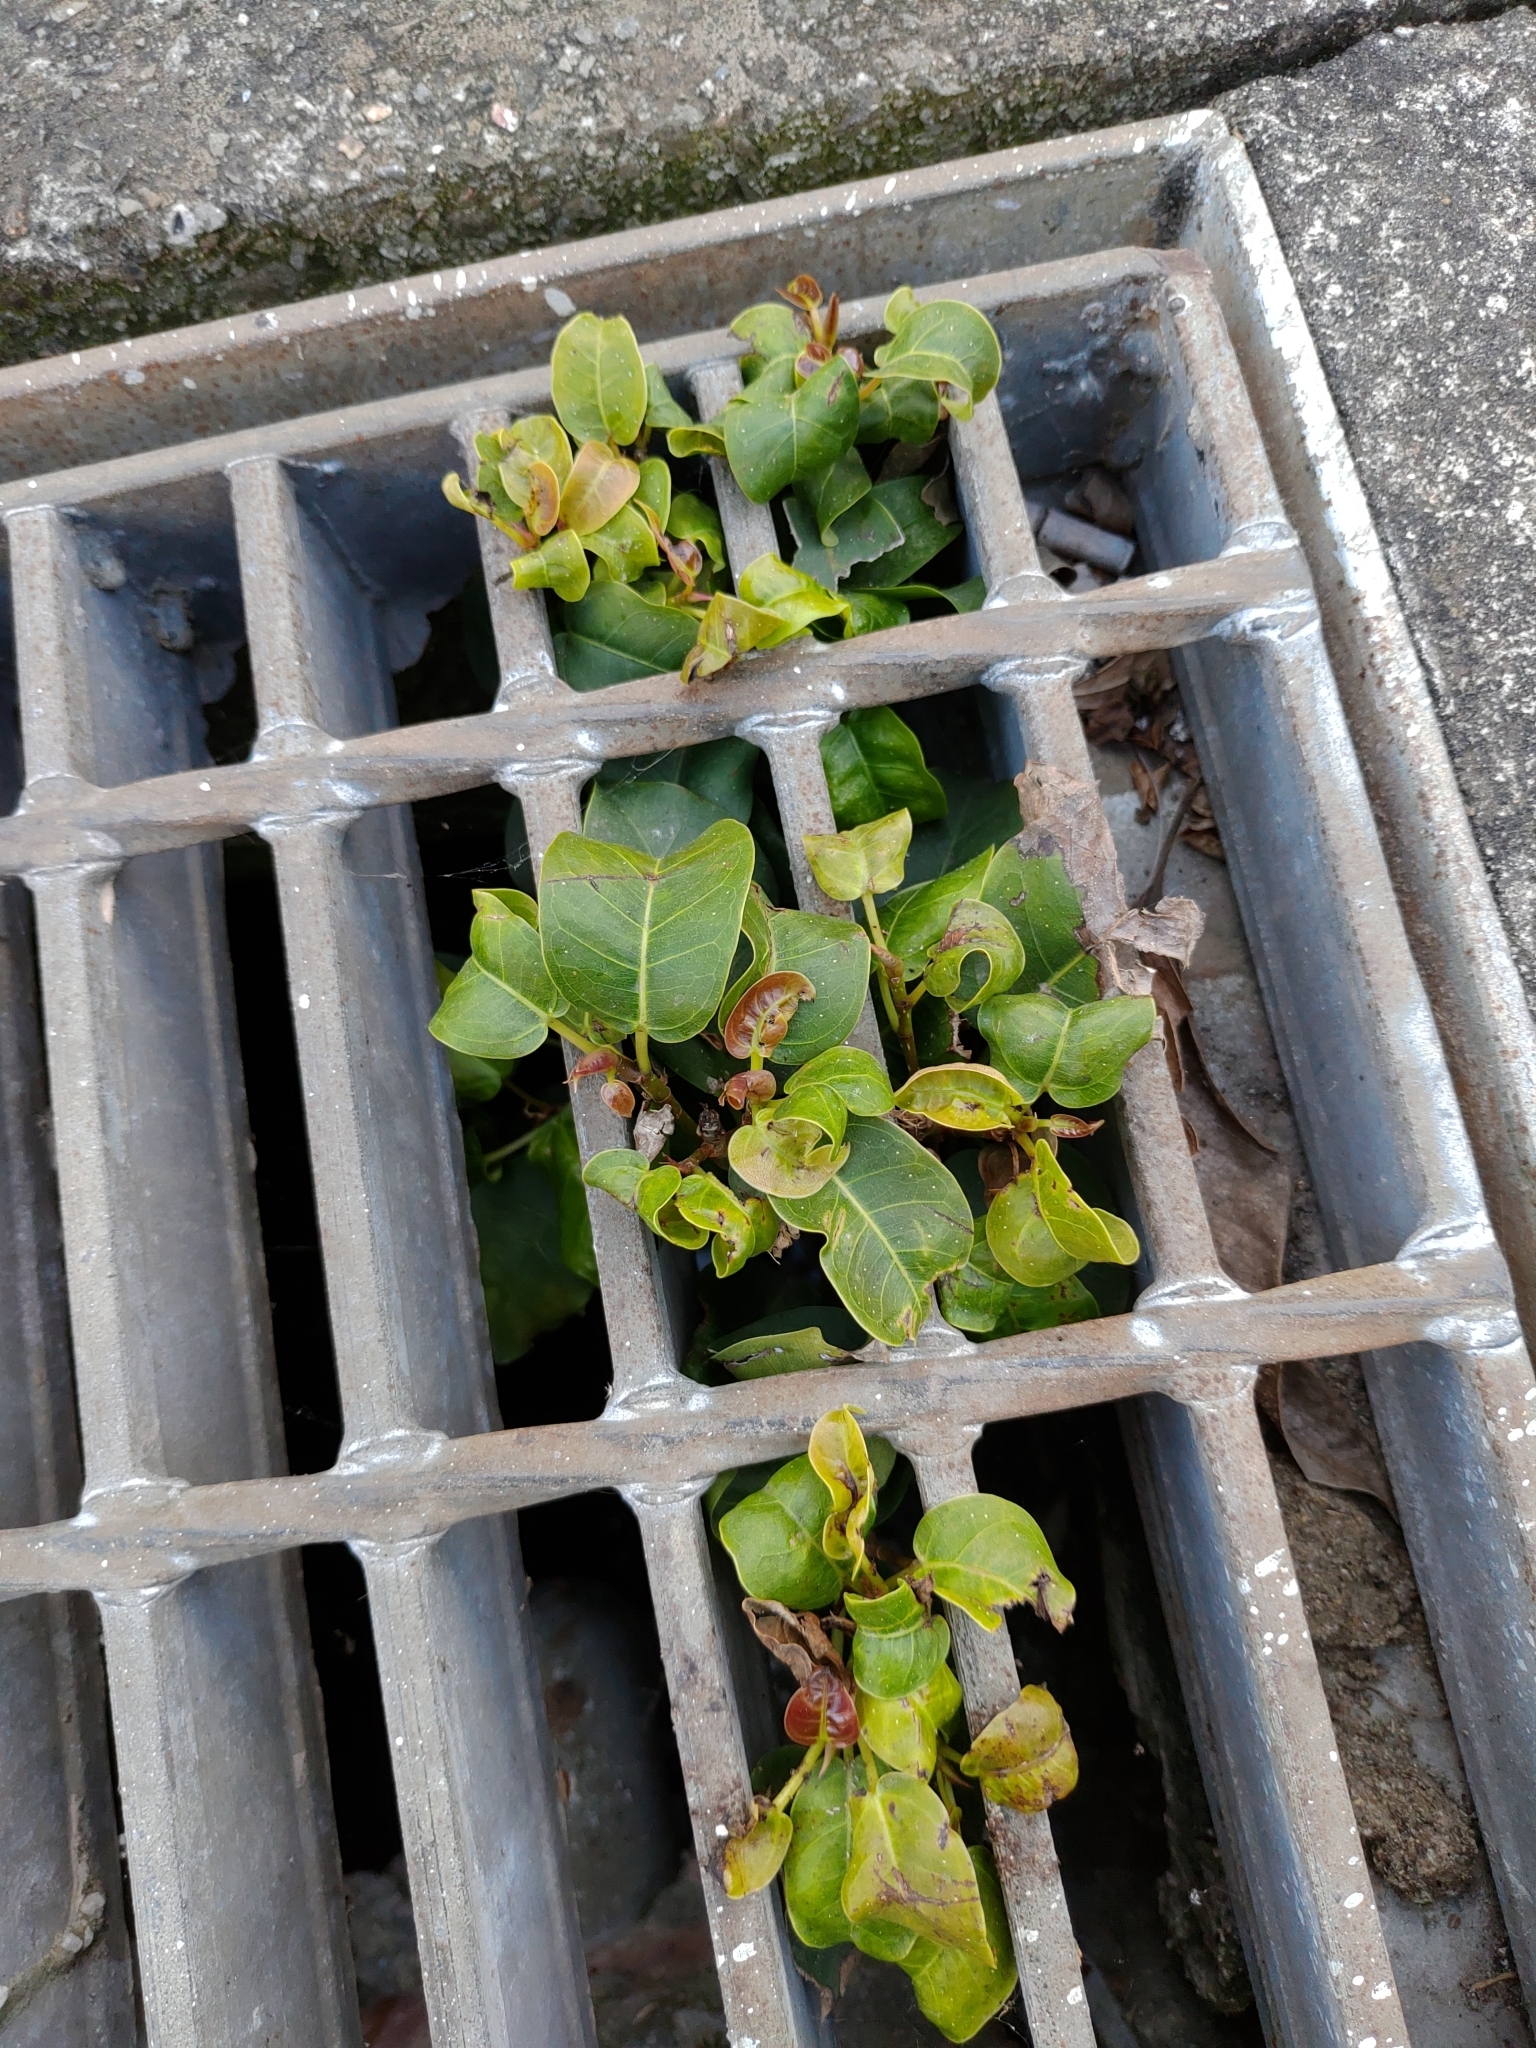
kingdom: Plantae
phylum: Tracheophyta
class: Magnoliopsida
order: Rosales
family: Moraceae
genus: Ficus
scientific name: Ficus subpisocarpa
